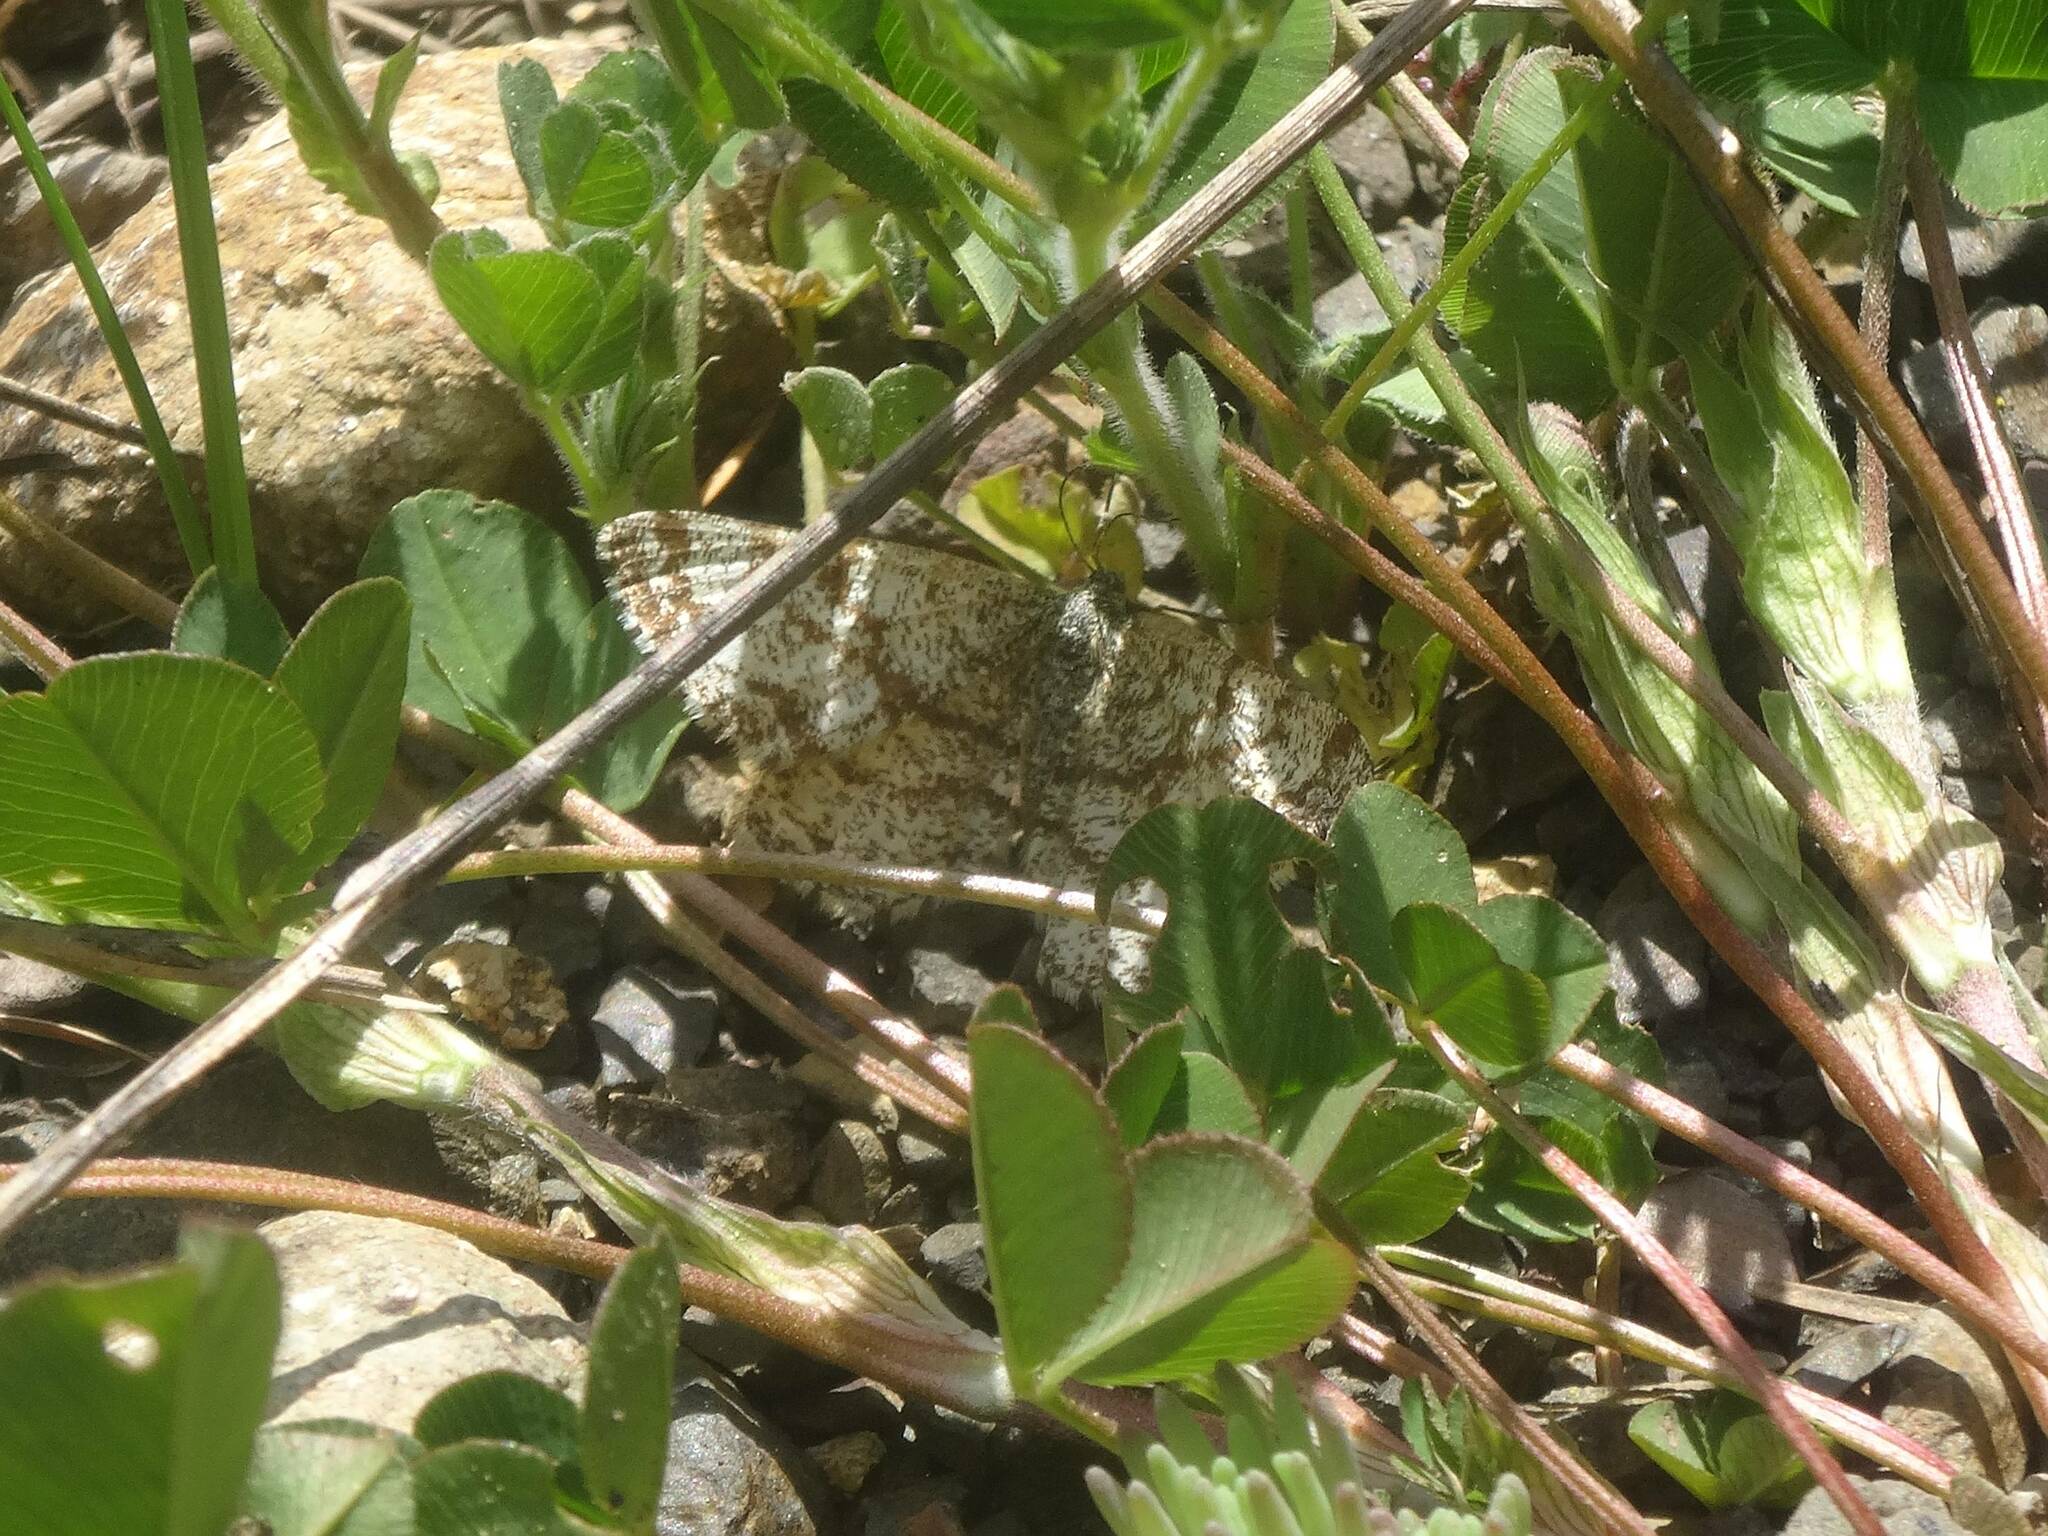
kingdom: Animalia
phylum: Arthropoda
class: Insecta
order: Lepidoptera
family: Geometridae
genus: Ematurga
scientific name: Ematurga atomaria
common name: Common heath
